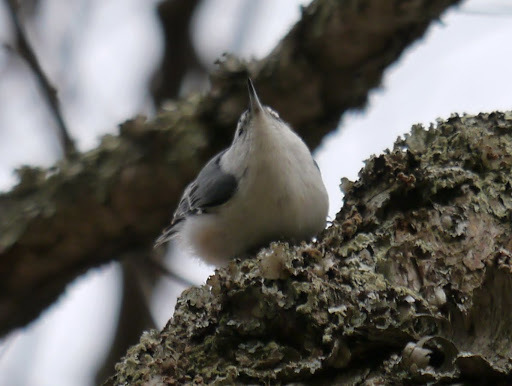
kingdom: Animalia
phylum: Chordata
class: Aves
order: Passeriformes
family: Sittidae
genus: Sitta
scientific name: Sitta carolinensis
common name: White-breasted nuthatch
